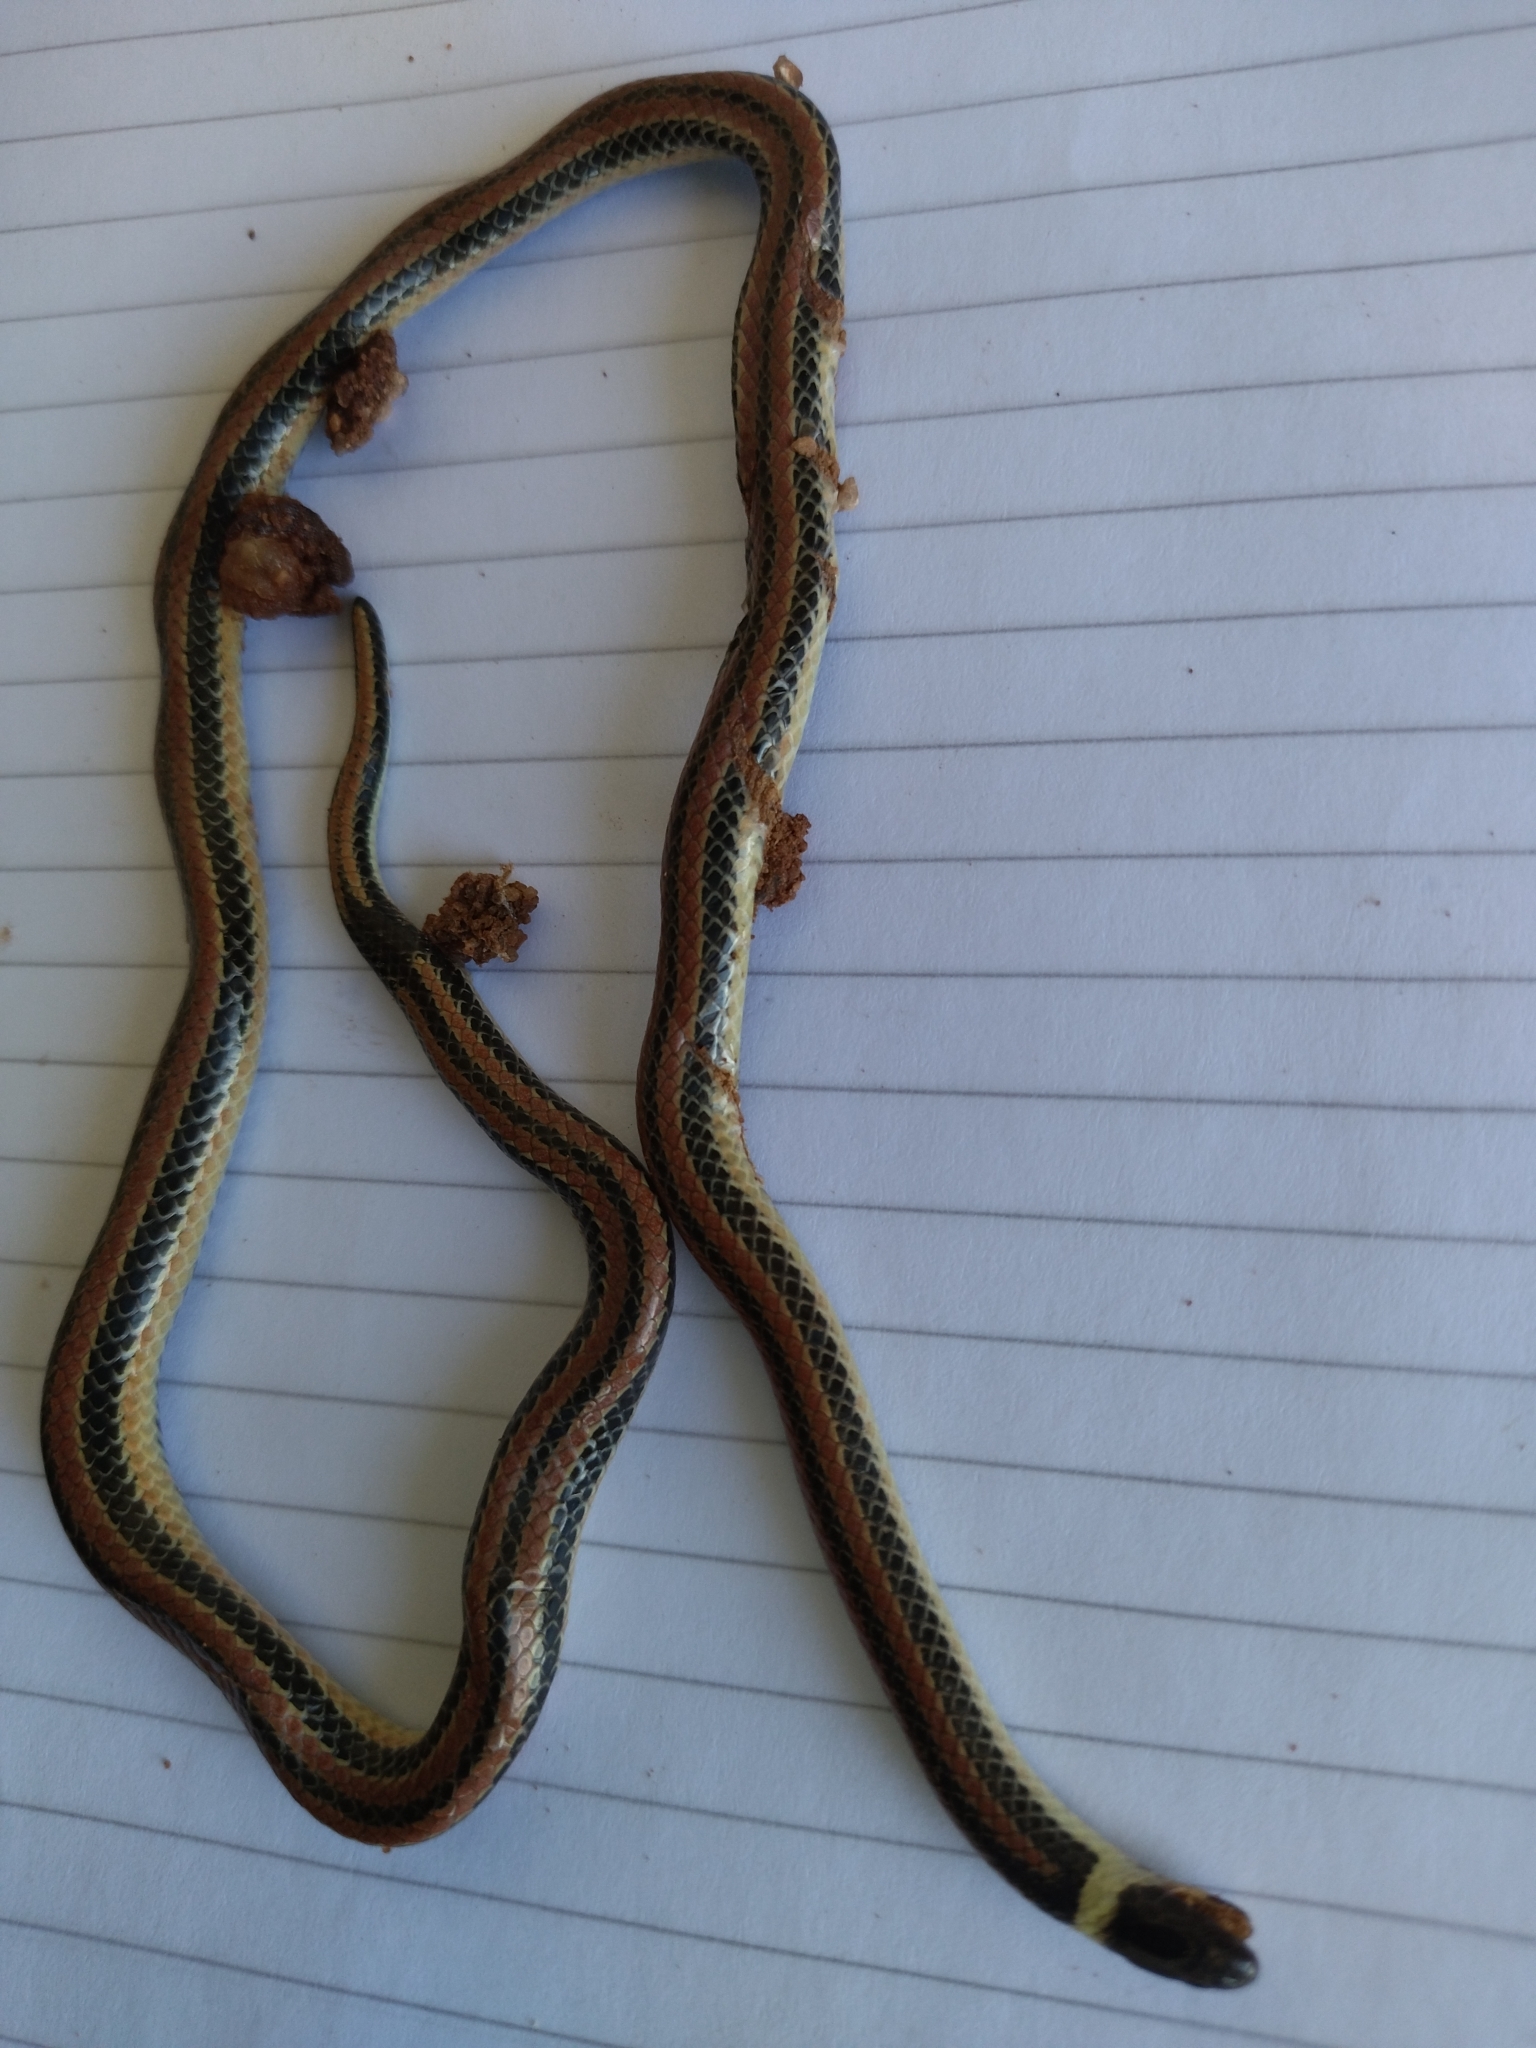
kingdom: Animalia
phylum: Chordata
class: Squamata
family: Colubridae
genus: Phalotris
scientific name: Phalotris lemniscatus
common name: Dumeril's diadem snake
